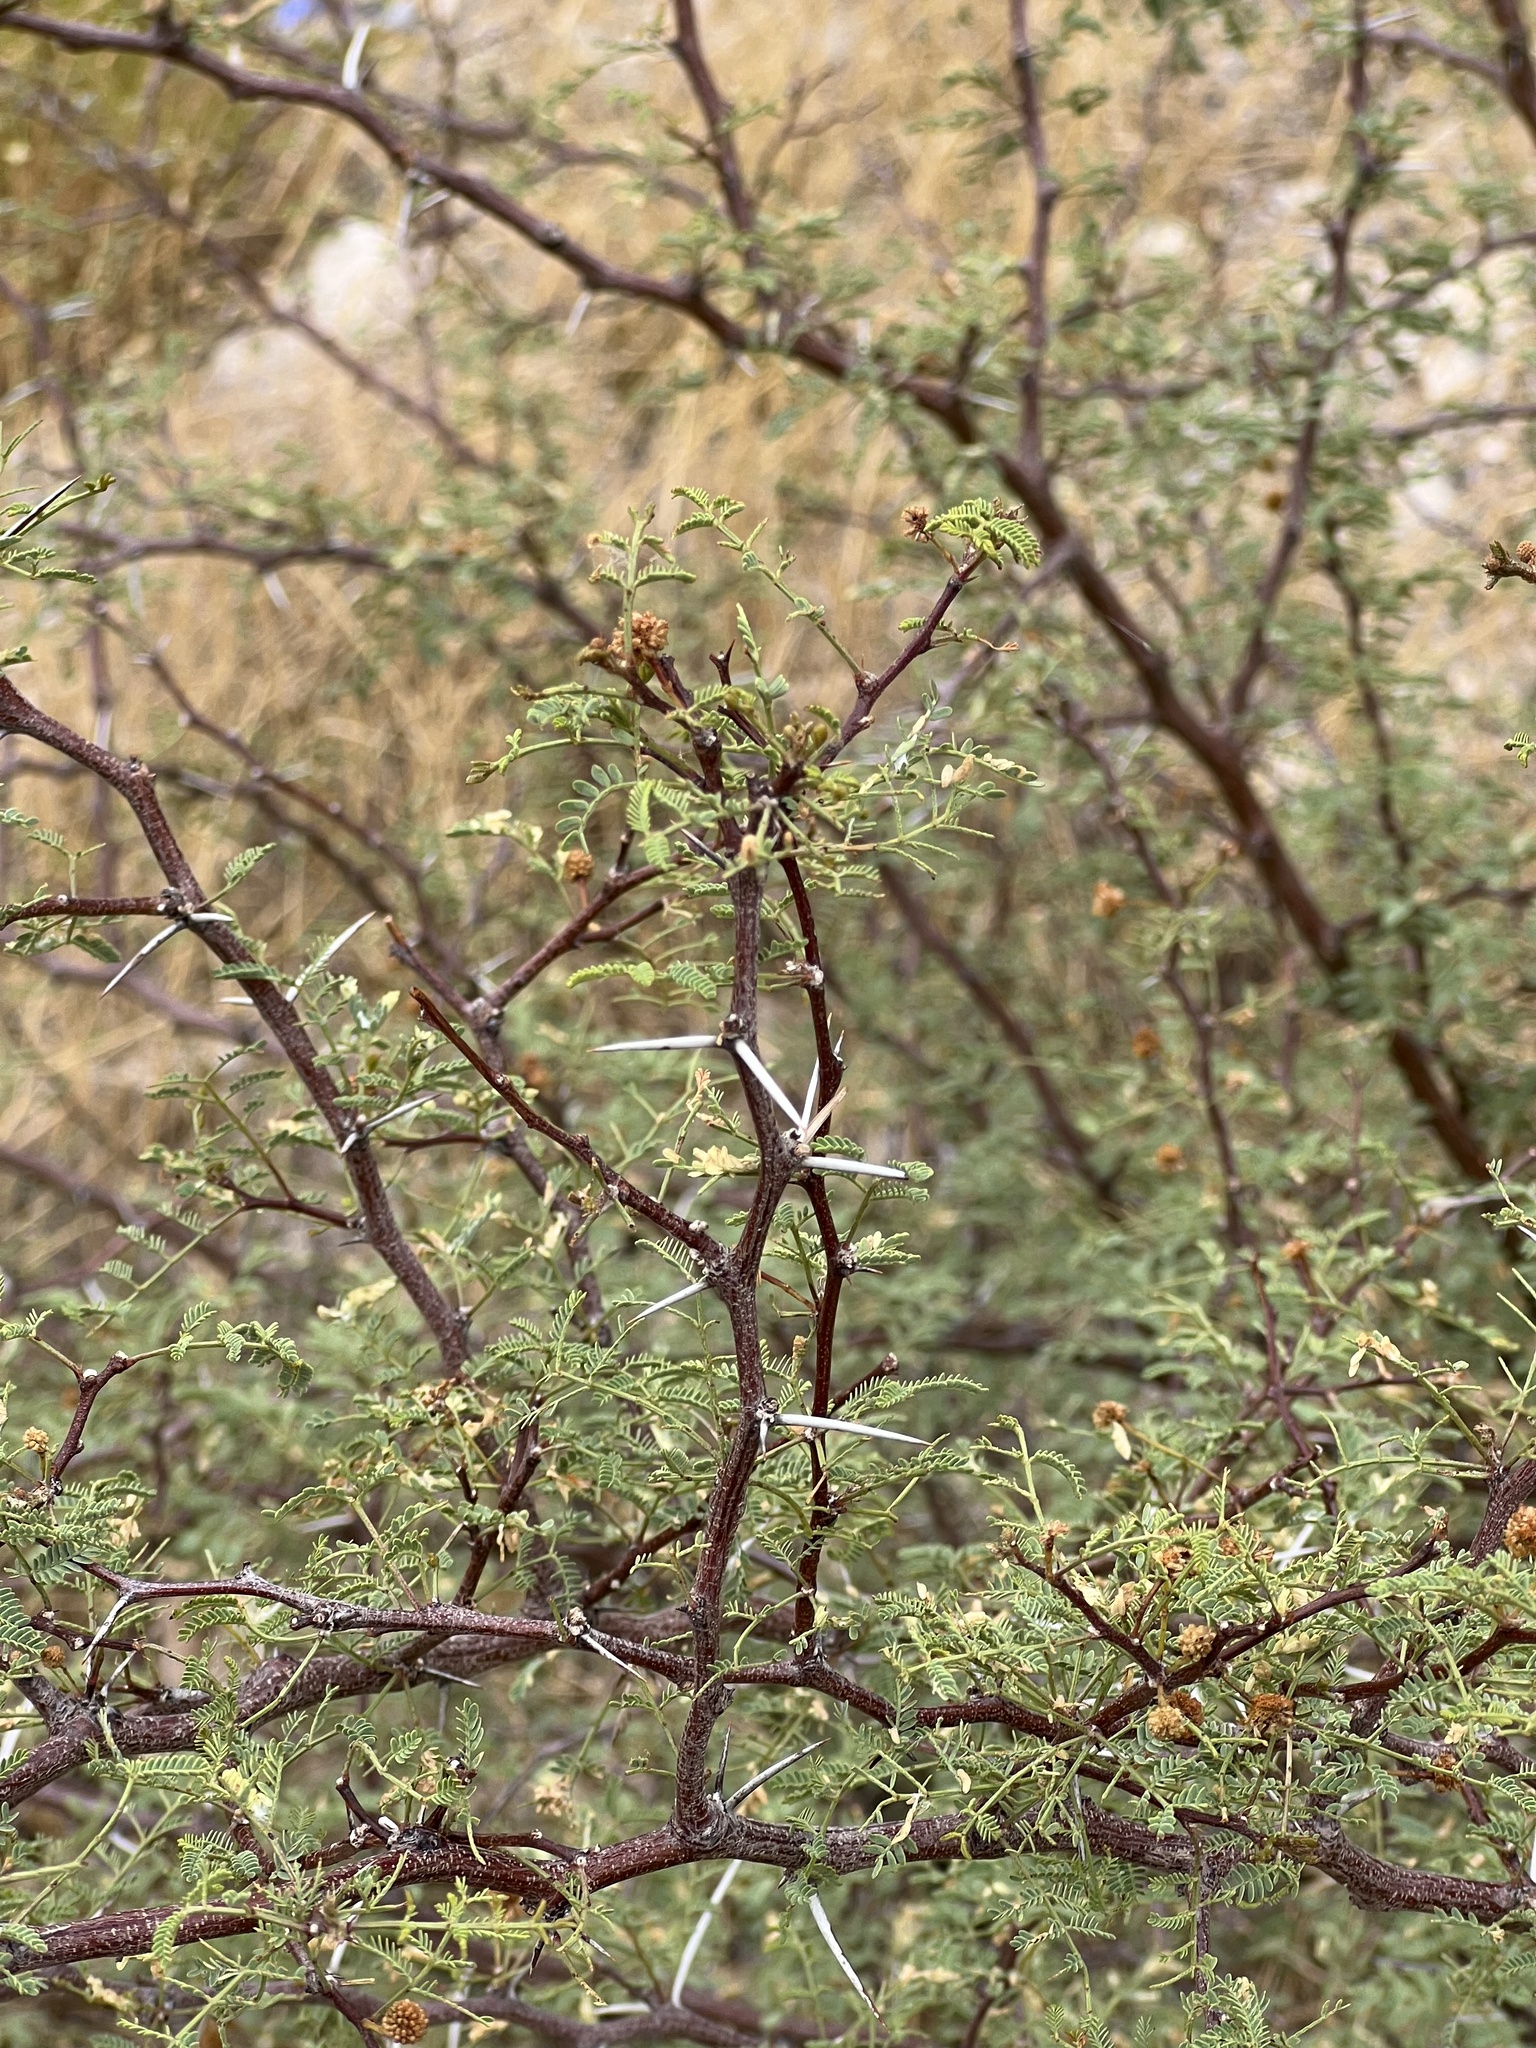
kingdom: Plantae
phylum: Tracheophyta
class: Magnoliopsida
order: Fabales
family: Fabaceae
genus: Vachellia
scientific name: Vachellia constricta
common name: Mescat acacia
